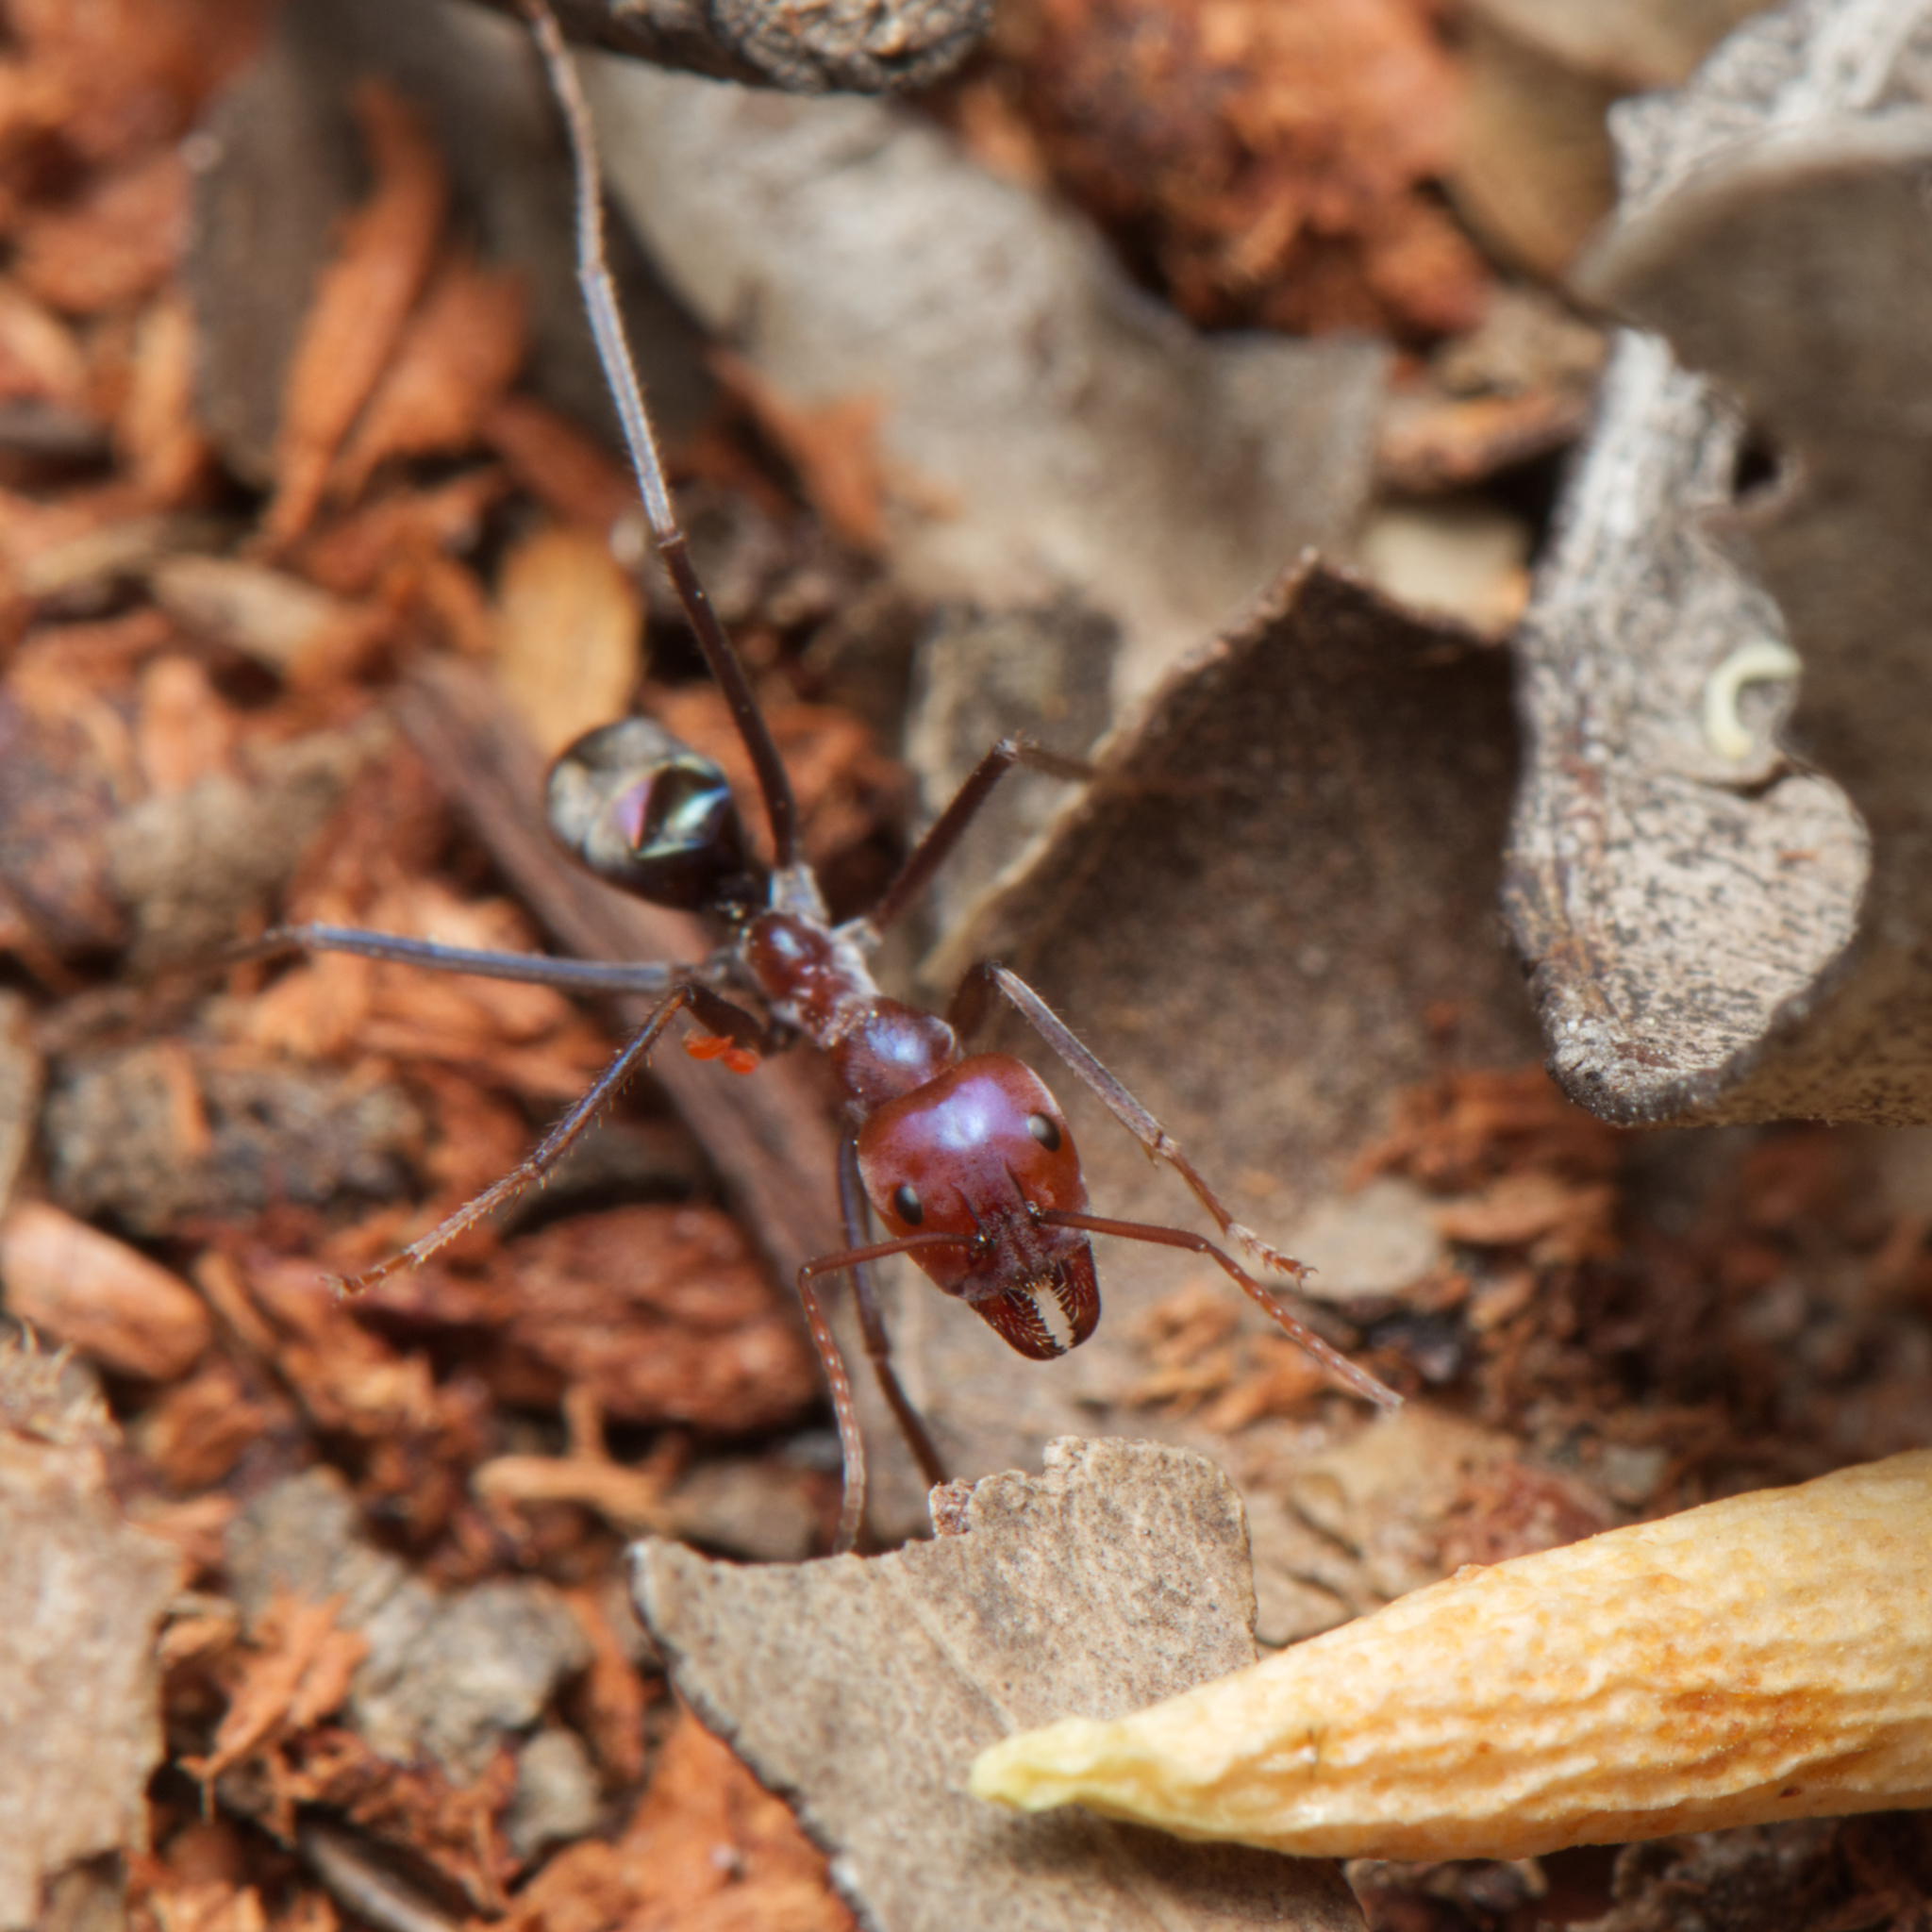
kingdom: Animalia
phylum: Arthropoda
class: Insecta
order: Hymenoptera
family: Formicidae
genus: Iridomyrmex
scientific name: Iridomyrmex purpureus
